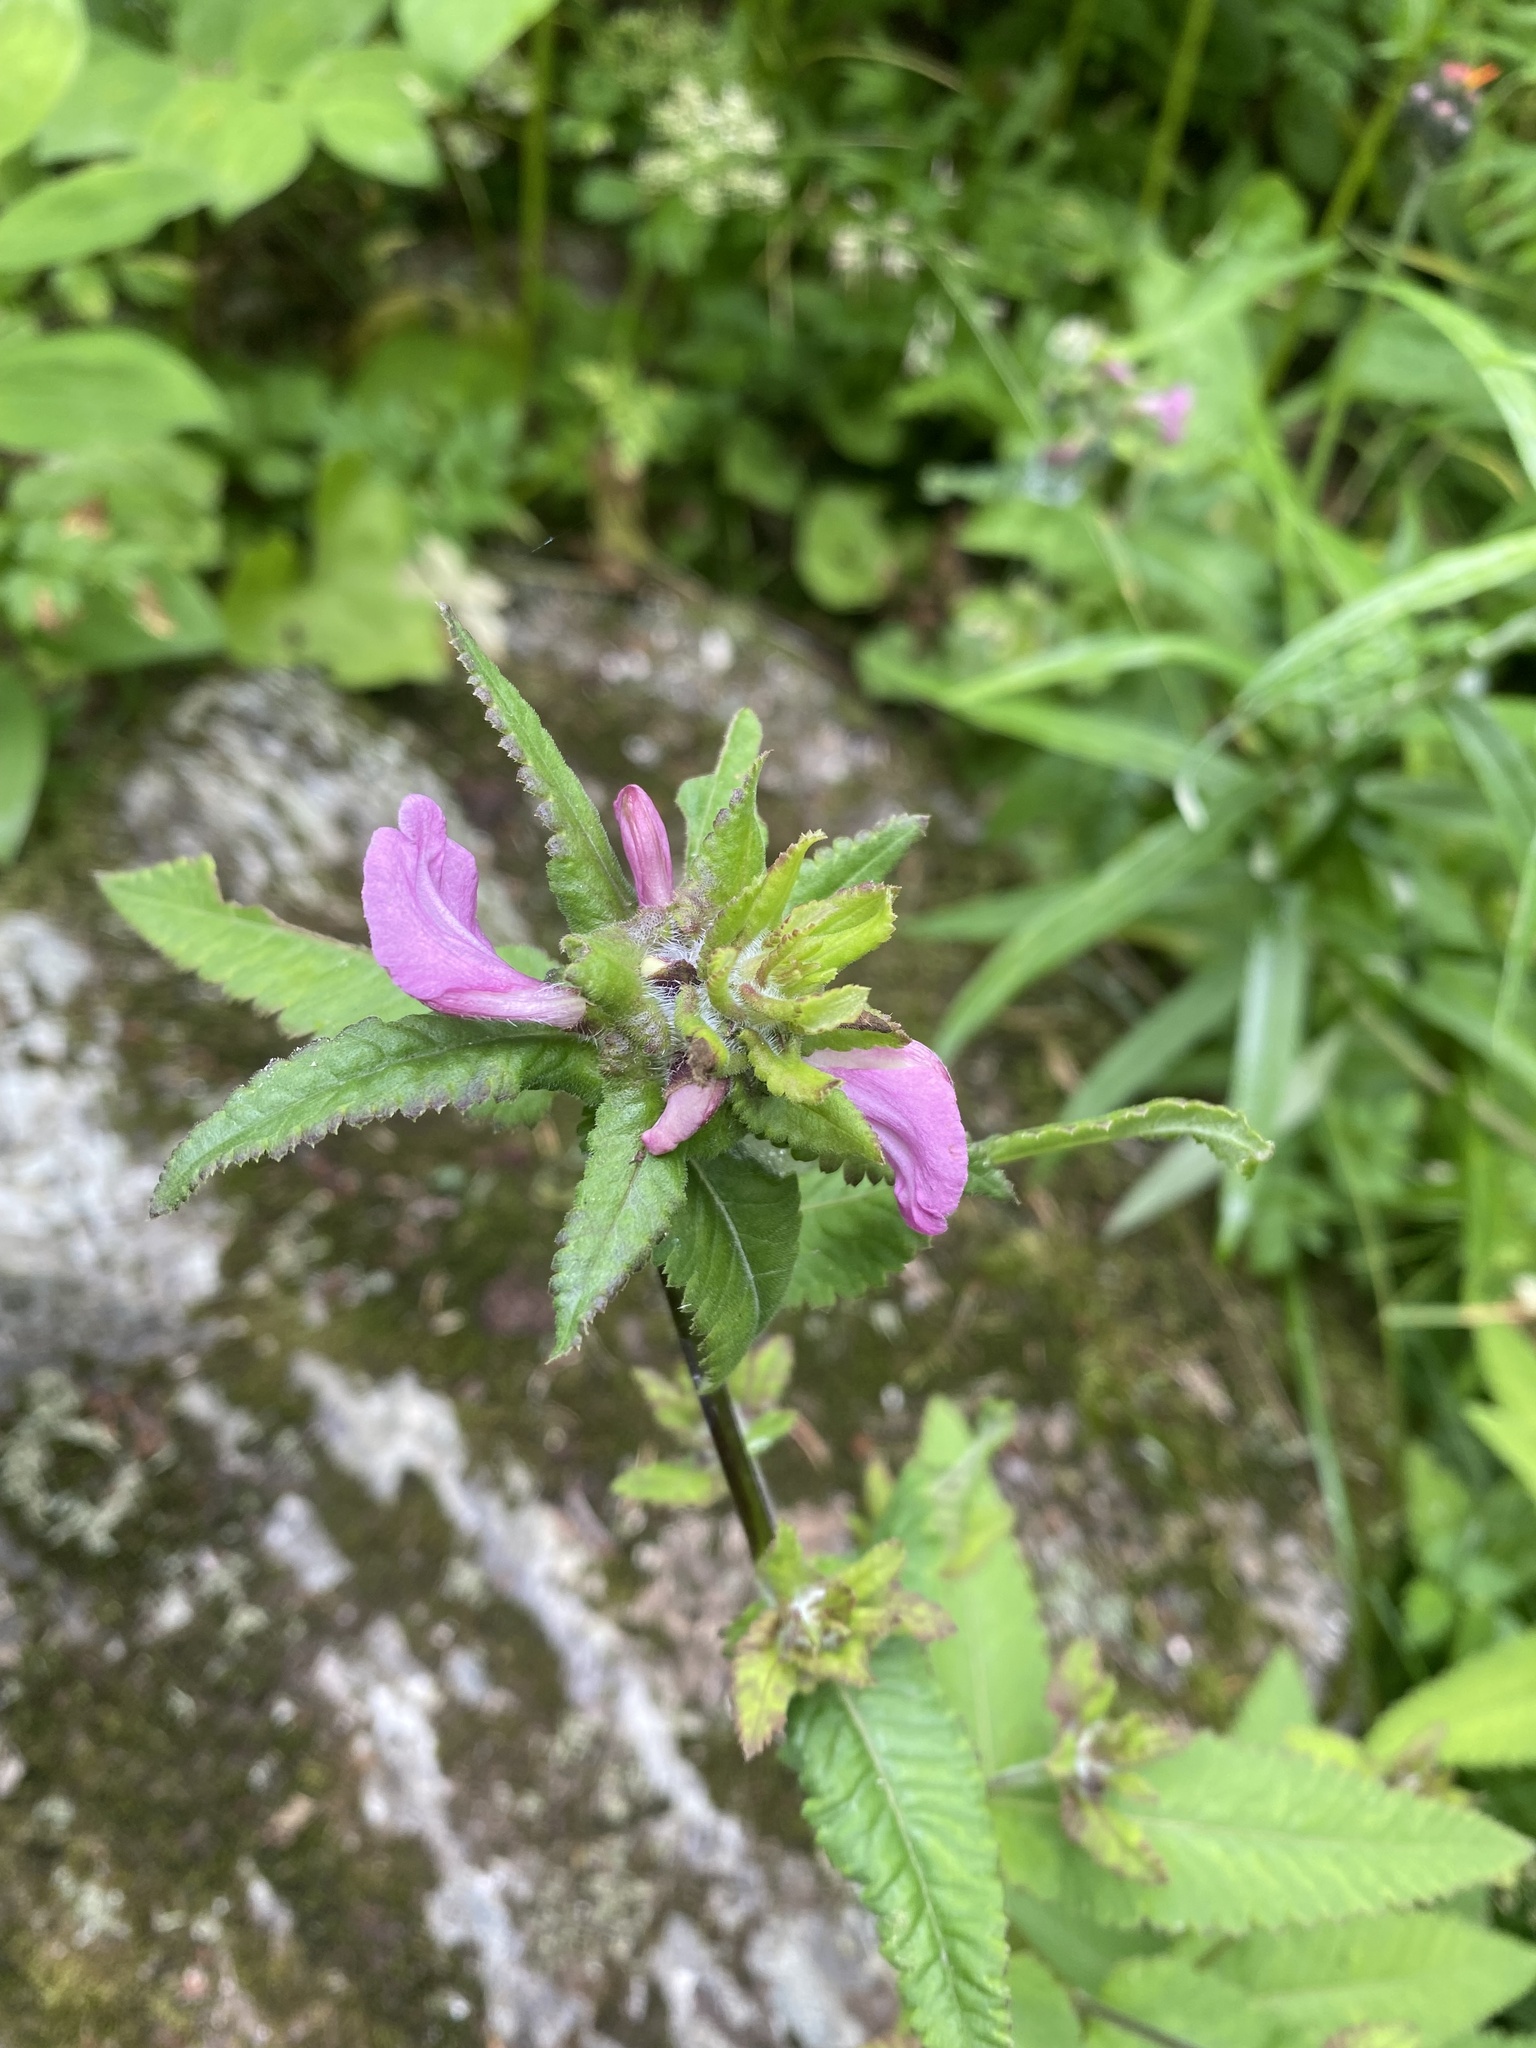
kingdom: Plantae
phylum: Tracheophyta
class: Magnoliopsida
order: Lamiales
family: Orobanchaceae
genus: Pedicularis
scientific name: Pedicularis resupinata
